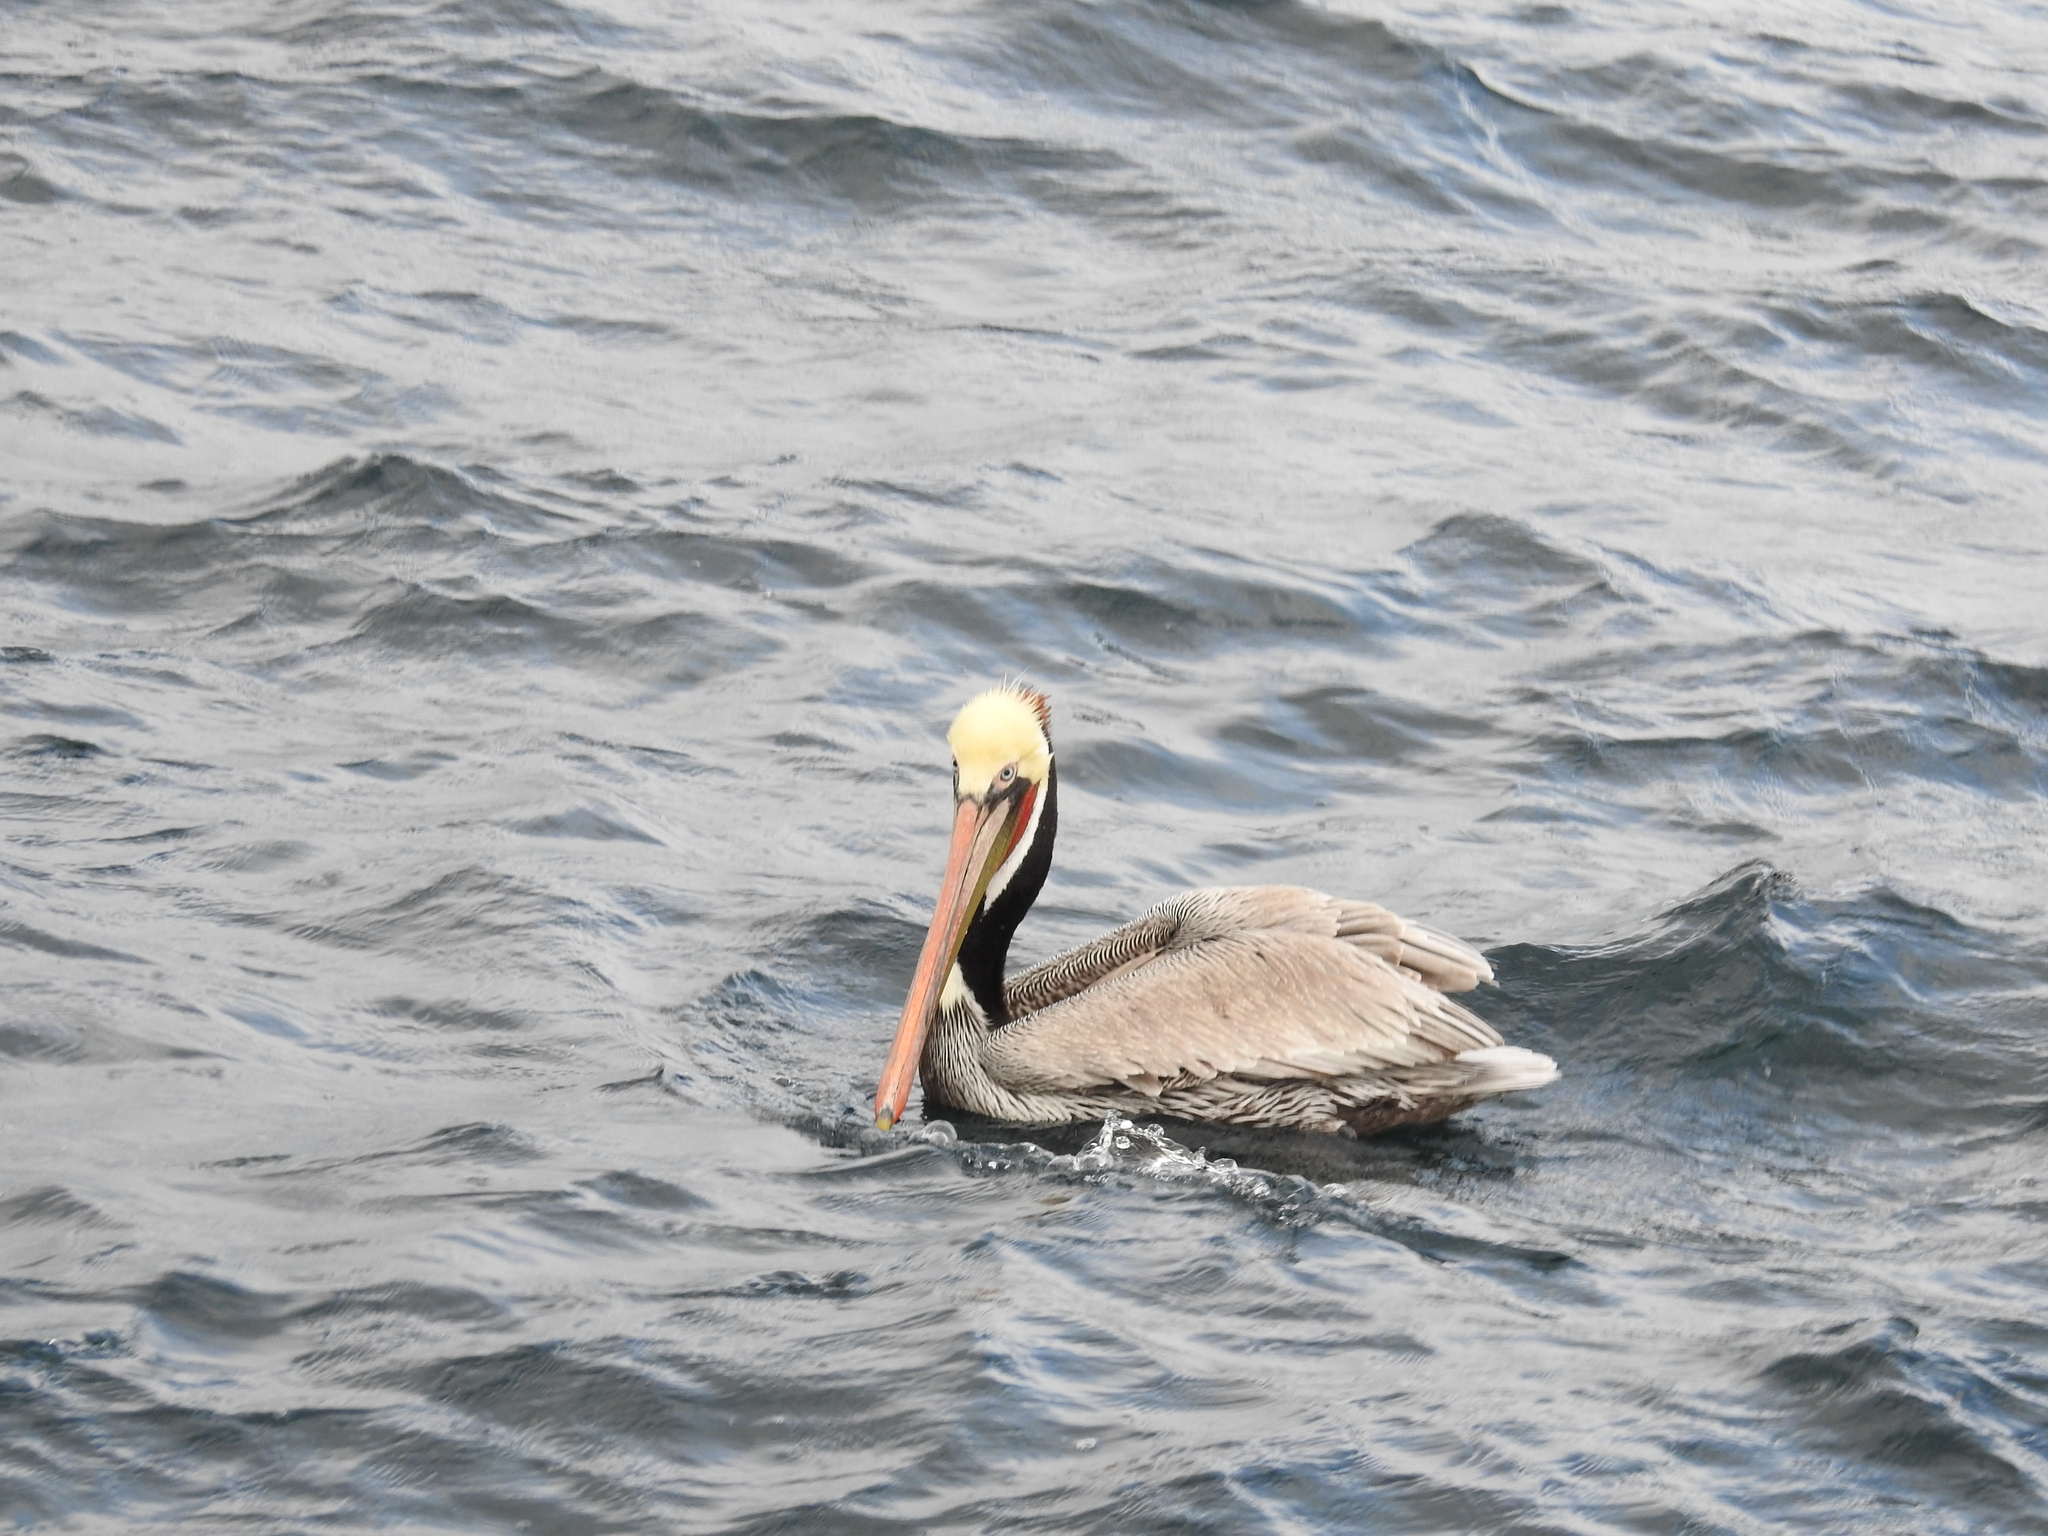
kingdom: Animalia
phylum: Chordata
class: Aves
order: Pelecaniformes
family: Pelecanidae
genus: Pelecanus
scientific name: Pelecanus occidentalis
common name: Brown pelican
